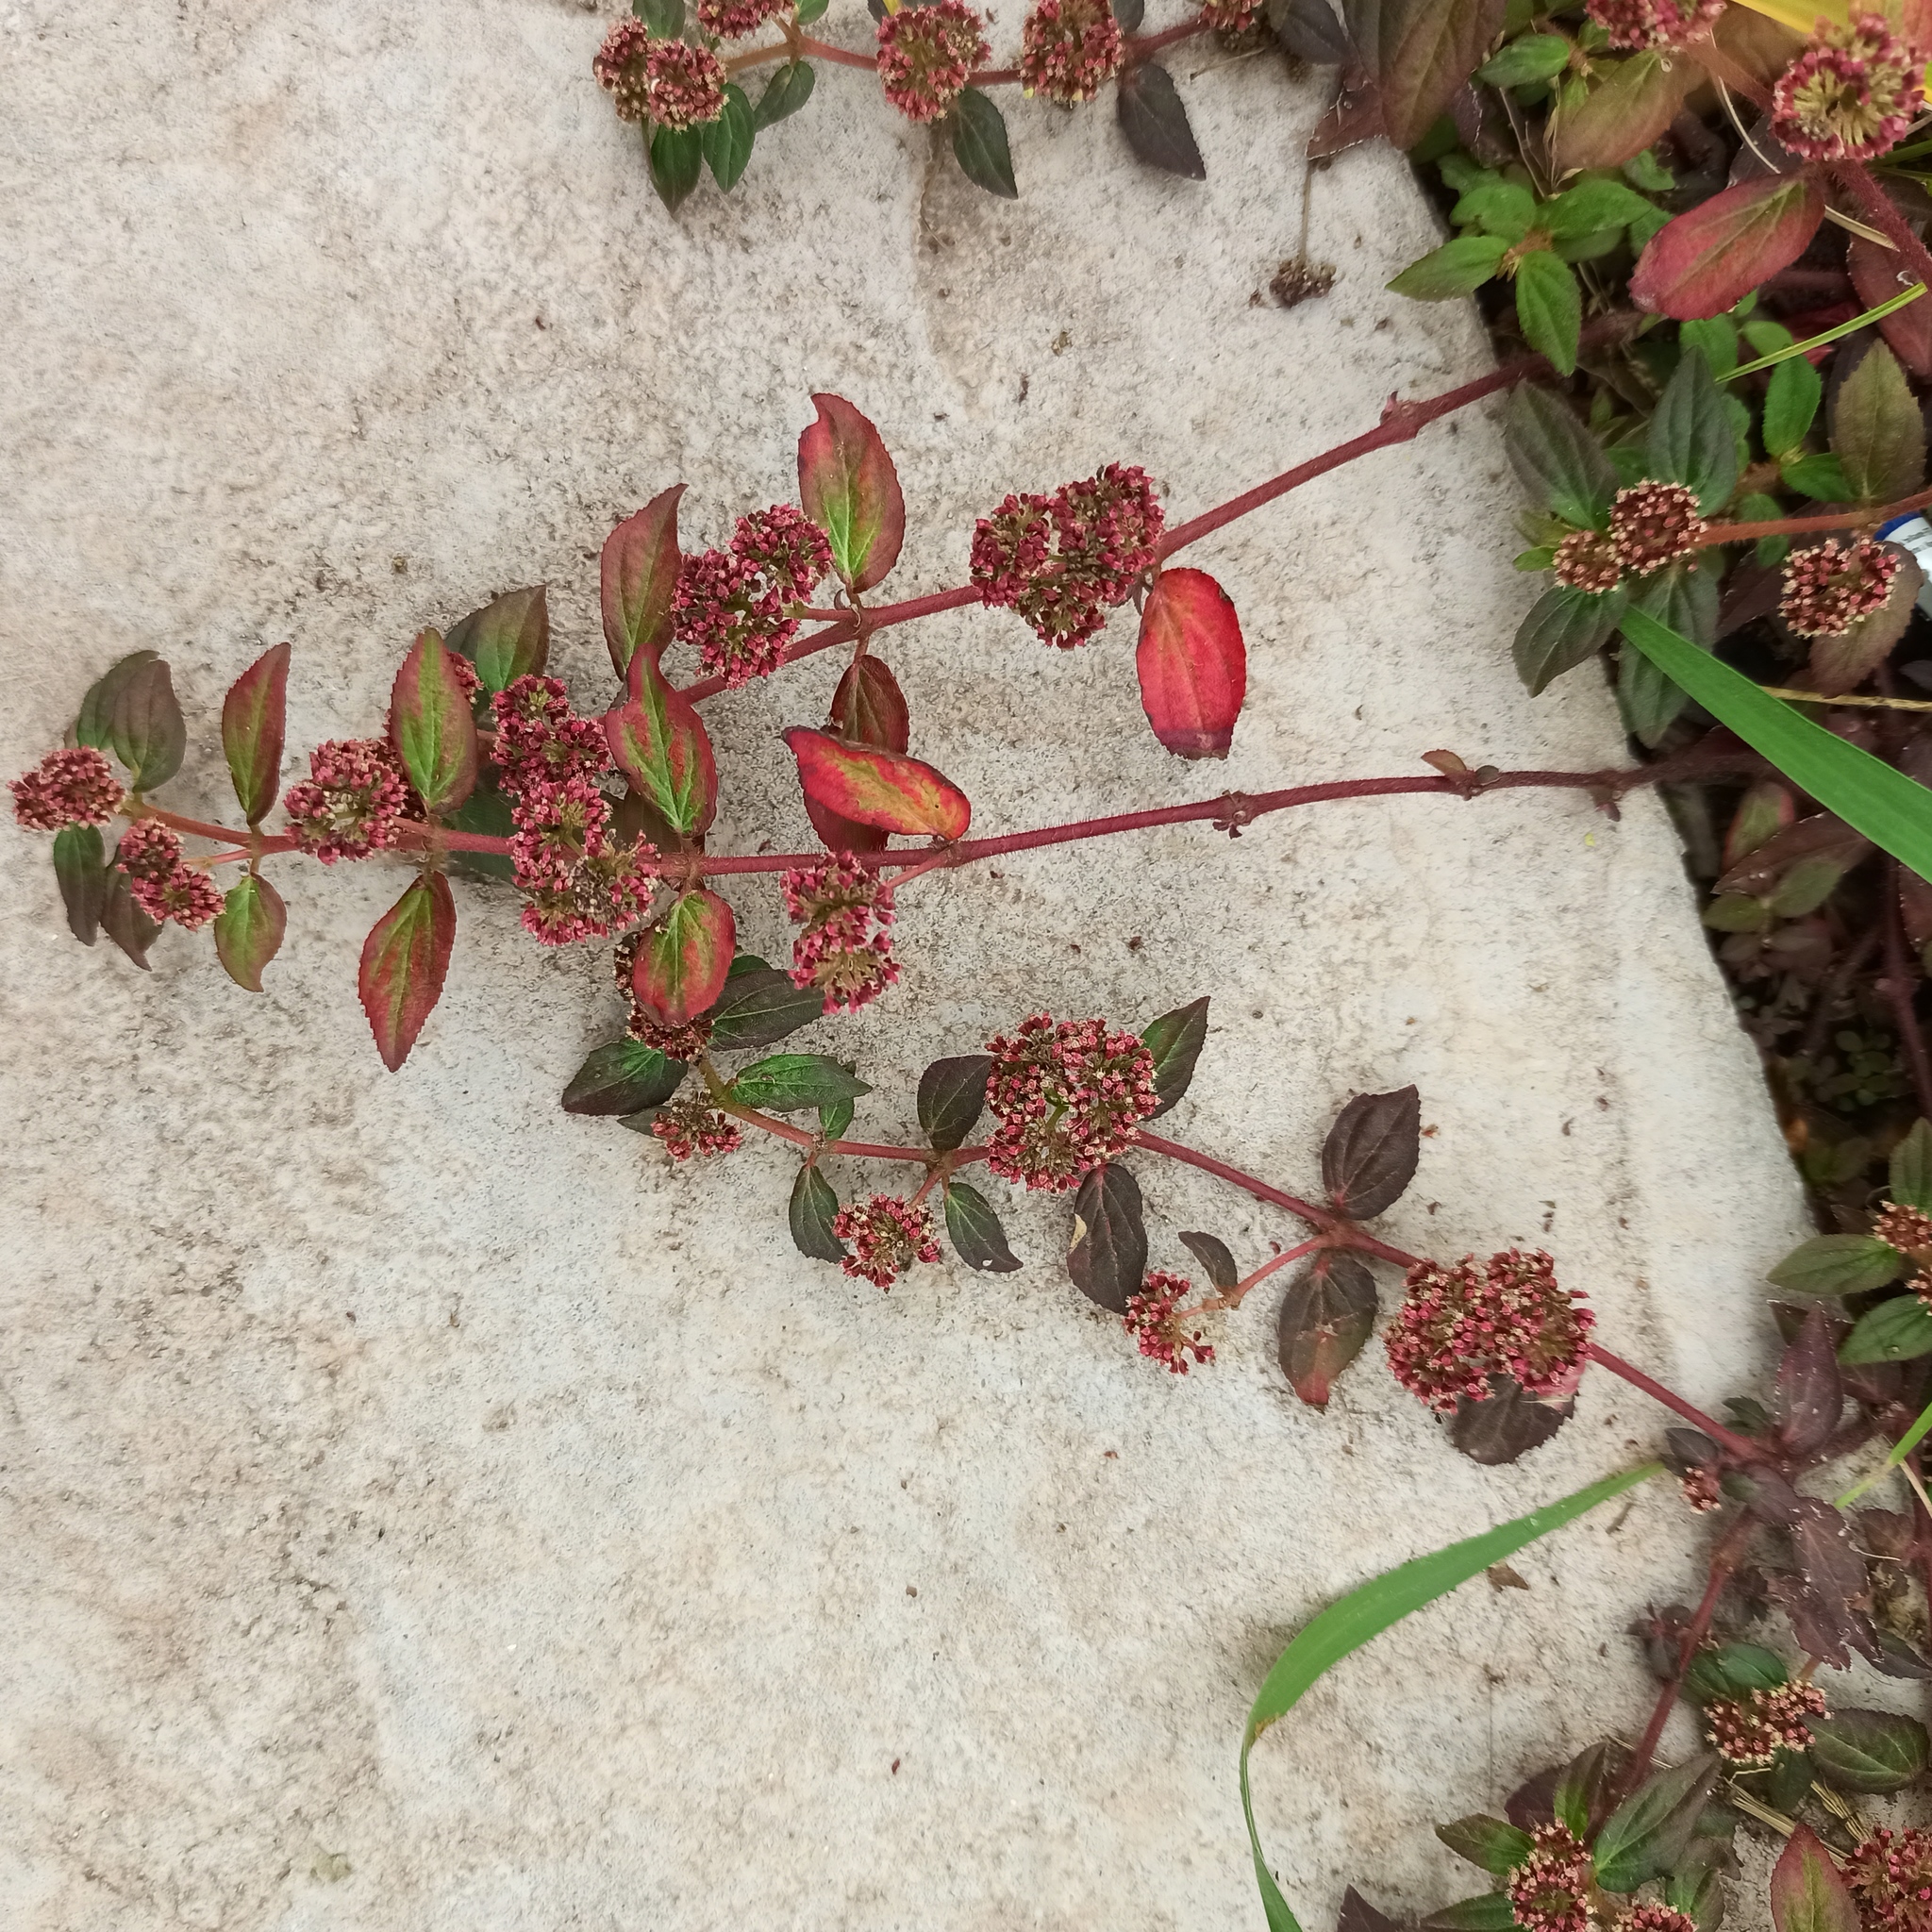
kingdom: Plantae
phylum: Tracheophyta
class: Magnoliopsida
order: Malpighiales
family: Euphorbiaceae
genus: Euphorbia
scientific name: Euphorbia hirta
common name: Pillpod sandmat
